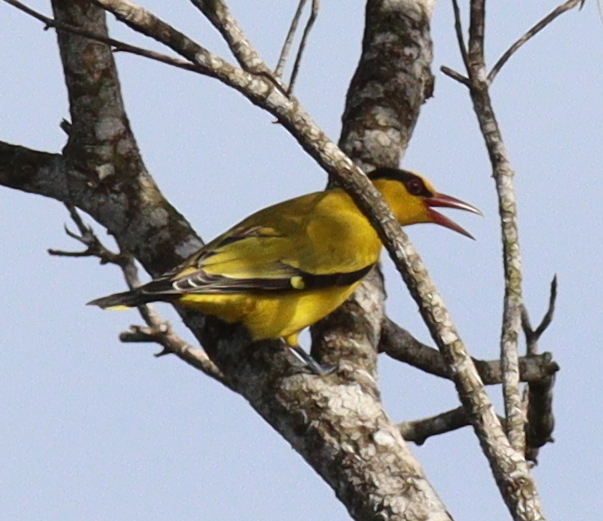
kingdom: Animalia
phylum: Chordata
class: Aves
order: Passeriformes
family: Oriolidae
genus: Oriolus
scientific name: Oriolus chinensis
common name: Black-naped oriole
